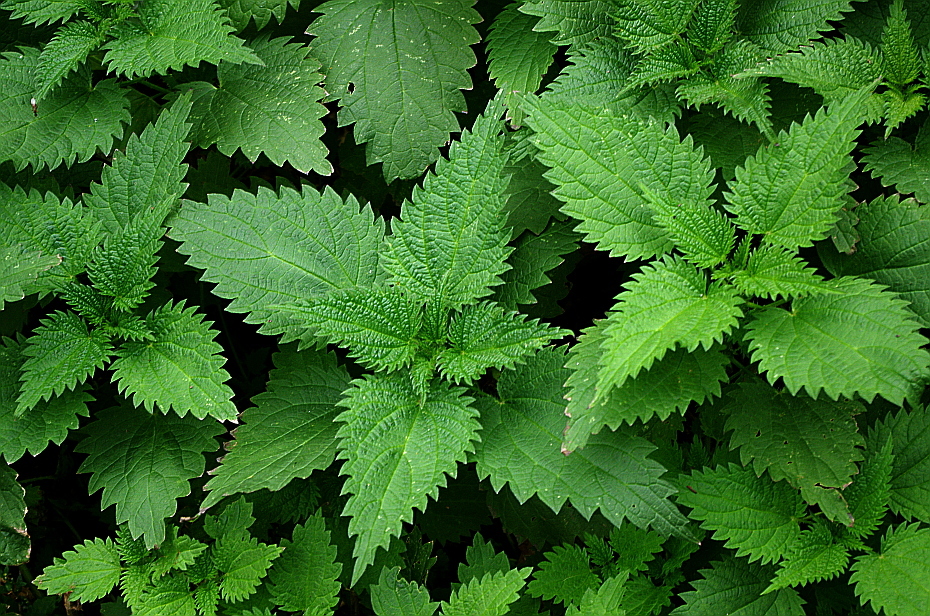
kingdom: Plantae
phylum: Tracheophyta
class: Magnoliopsida
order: Rosales
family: Urticaceae
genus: Urtica
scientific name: Urtica dioica
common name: Common nettle
